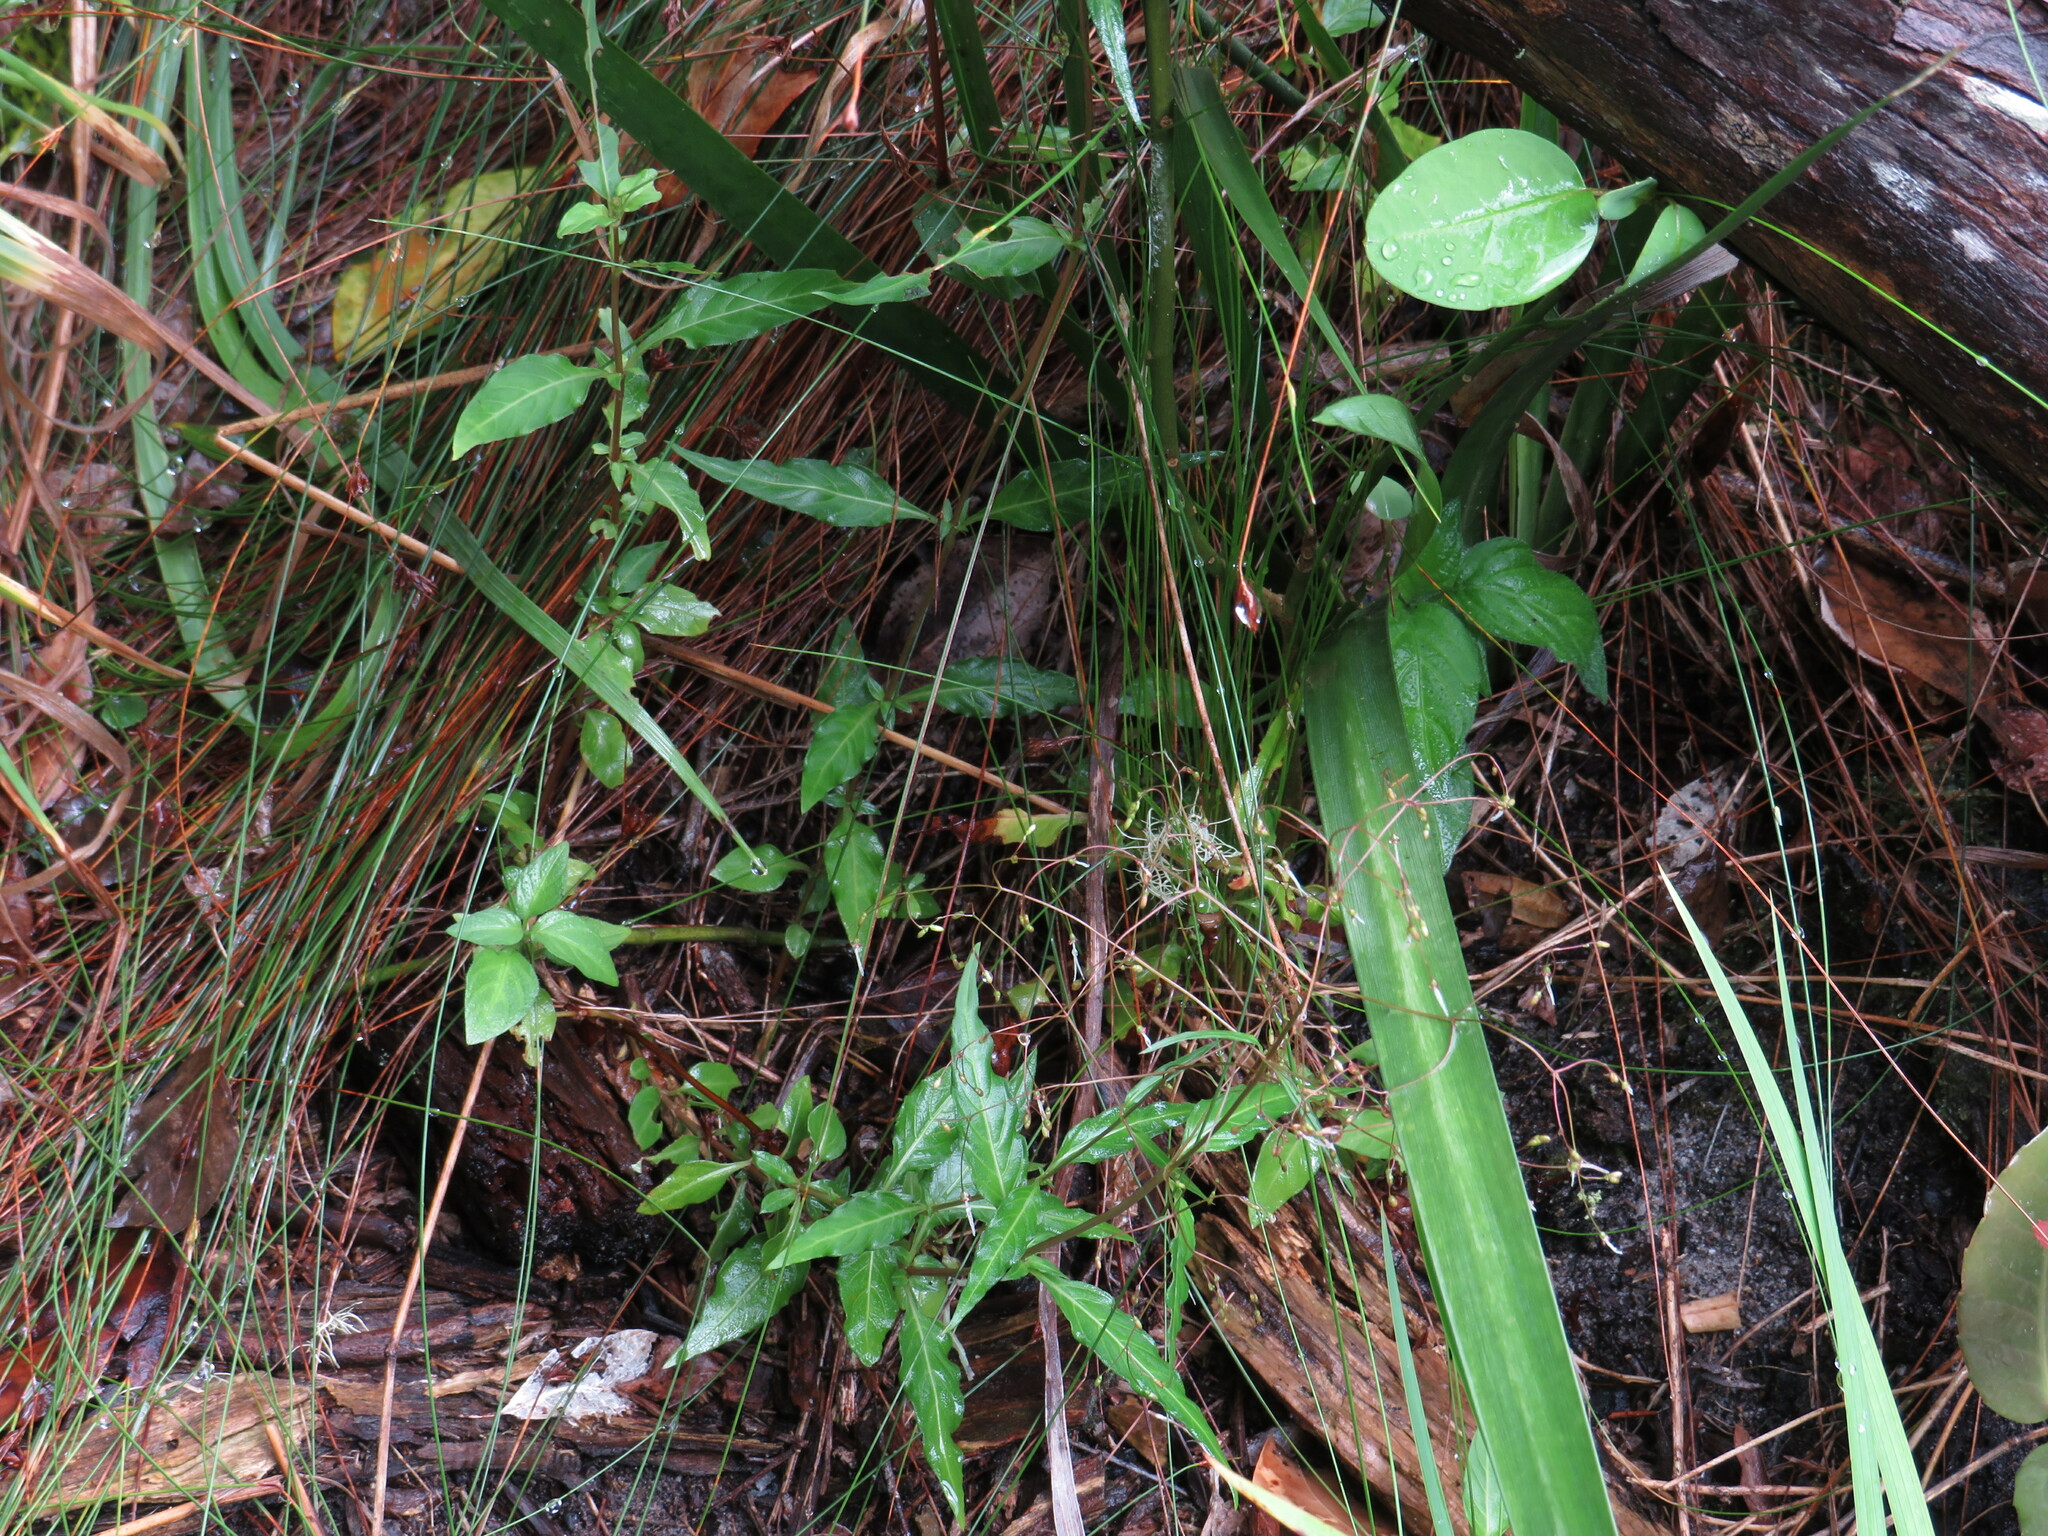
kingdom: Plantae
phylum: Tracheophyta
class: Magnoliopsida
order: Gentianales
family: Rubiaceae
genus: Galopina
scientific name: Galopina circaeoides
